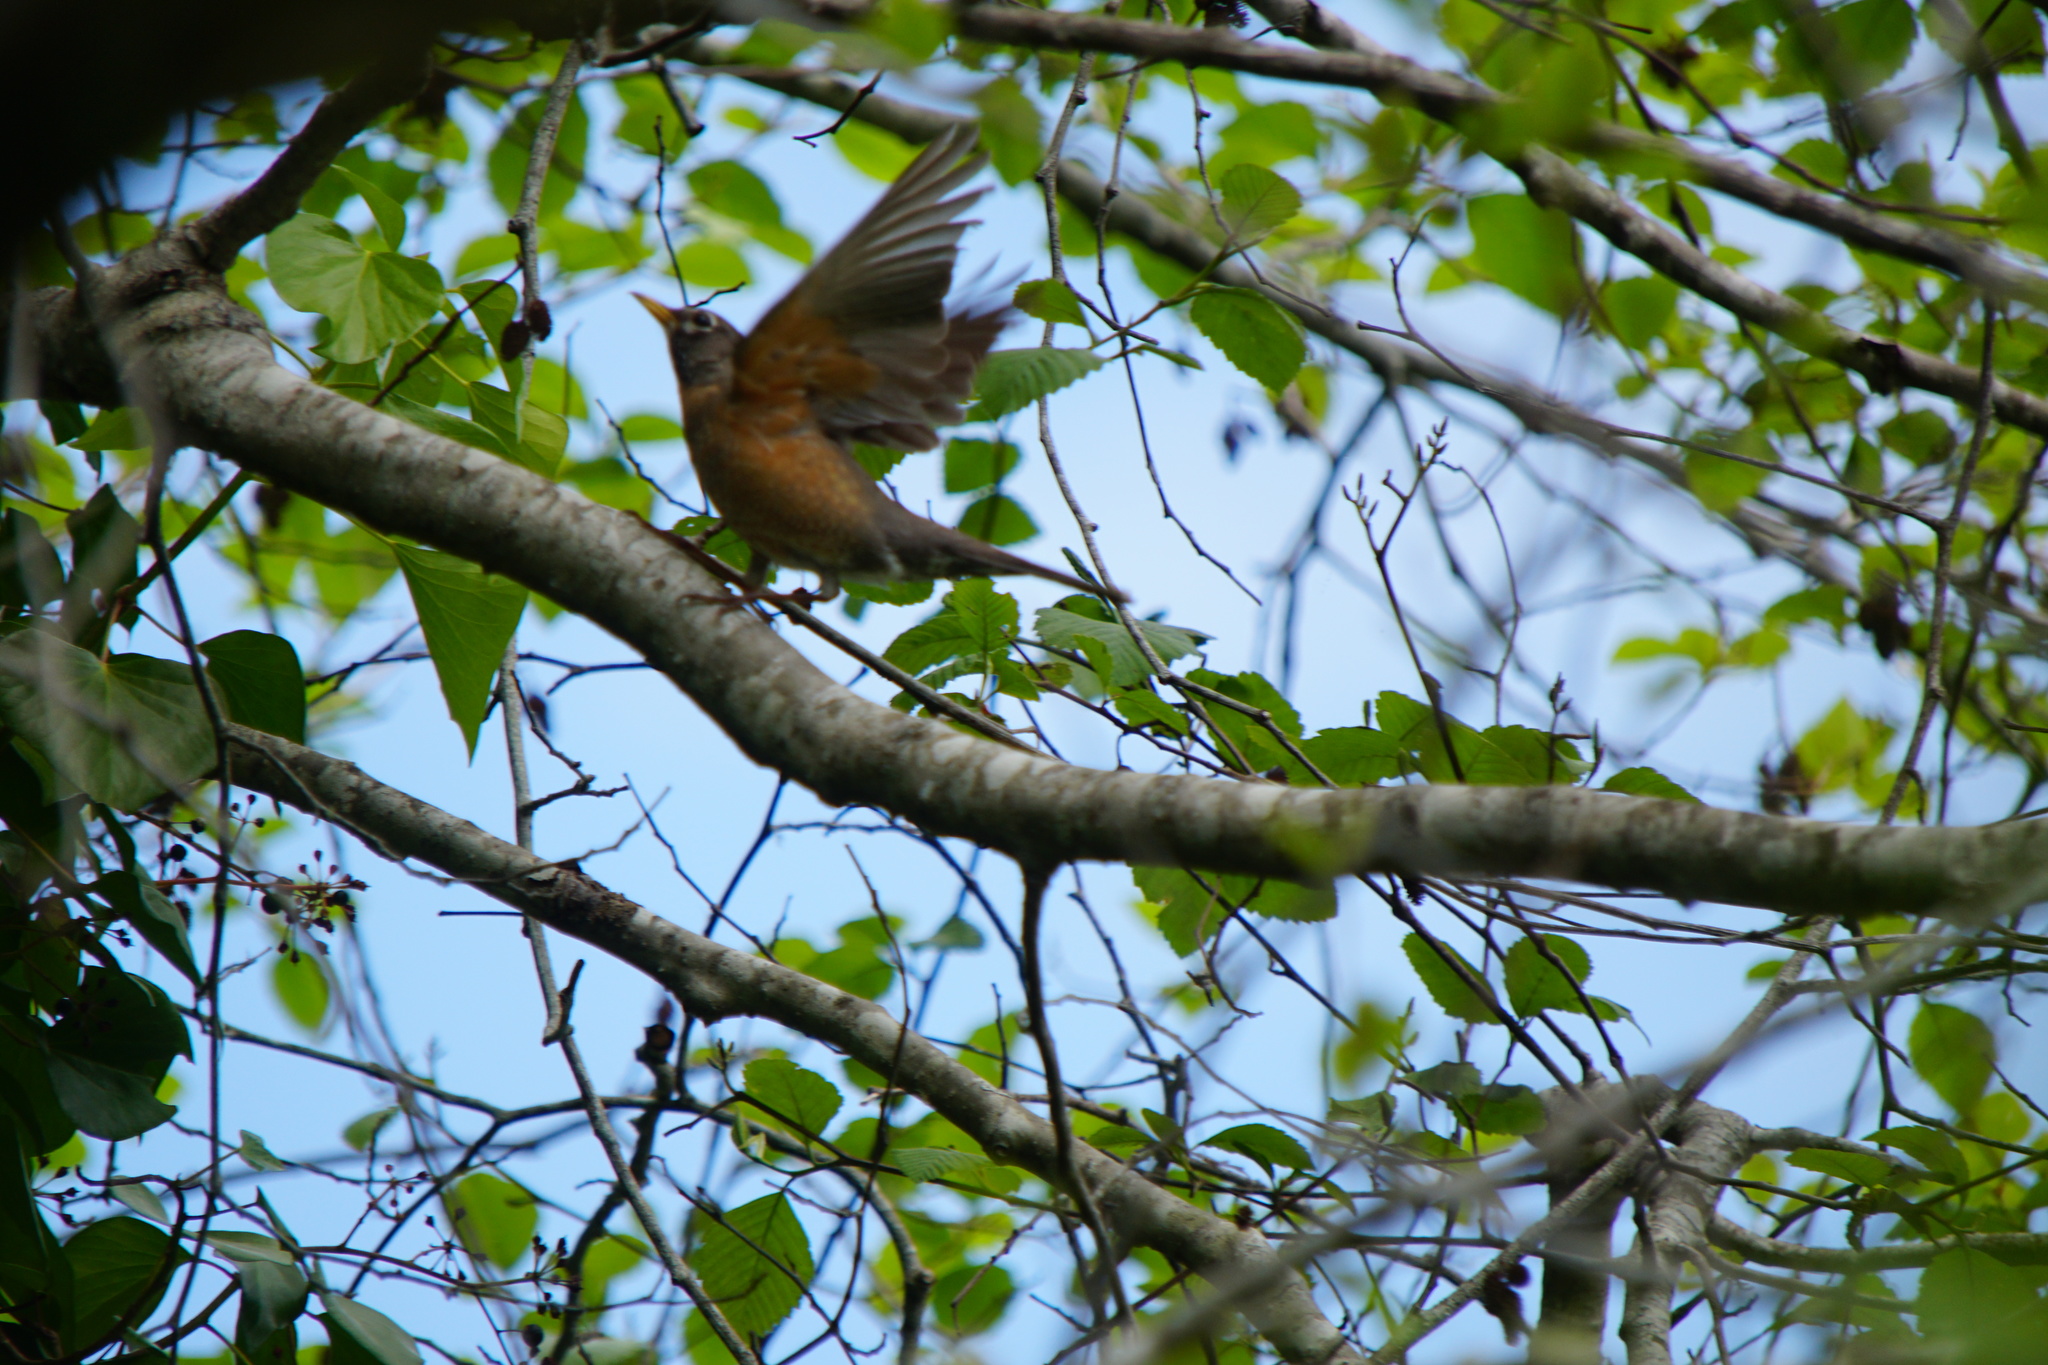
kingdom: Animalia
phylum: Chordata
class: Aves
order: Passeriformes
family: Turdidae
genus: Turdus
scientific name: Turdus migratorius
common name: American robin
